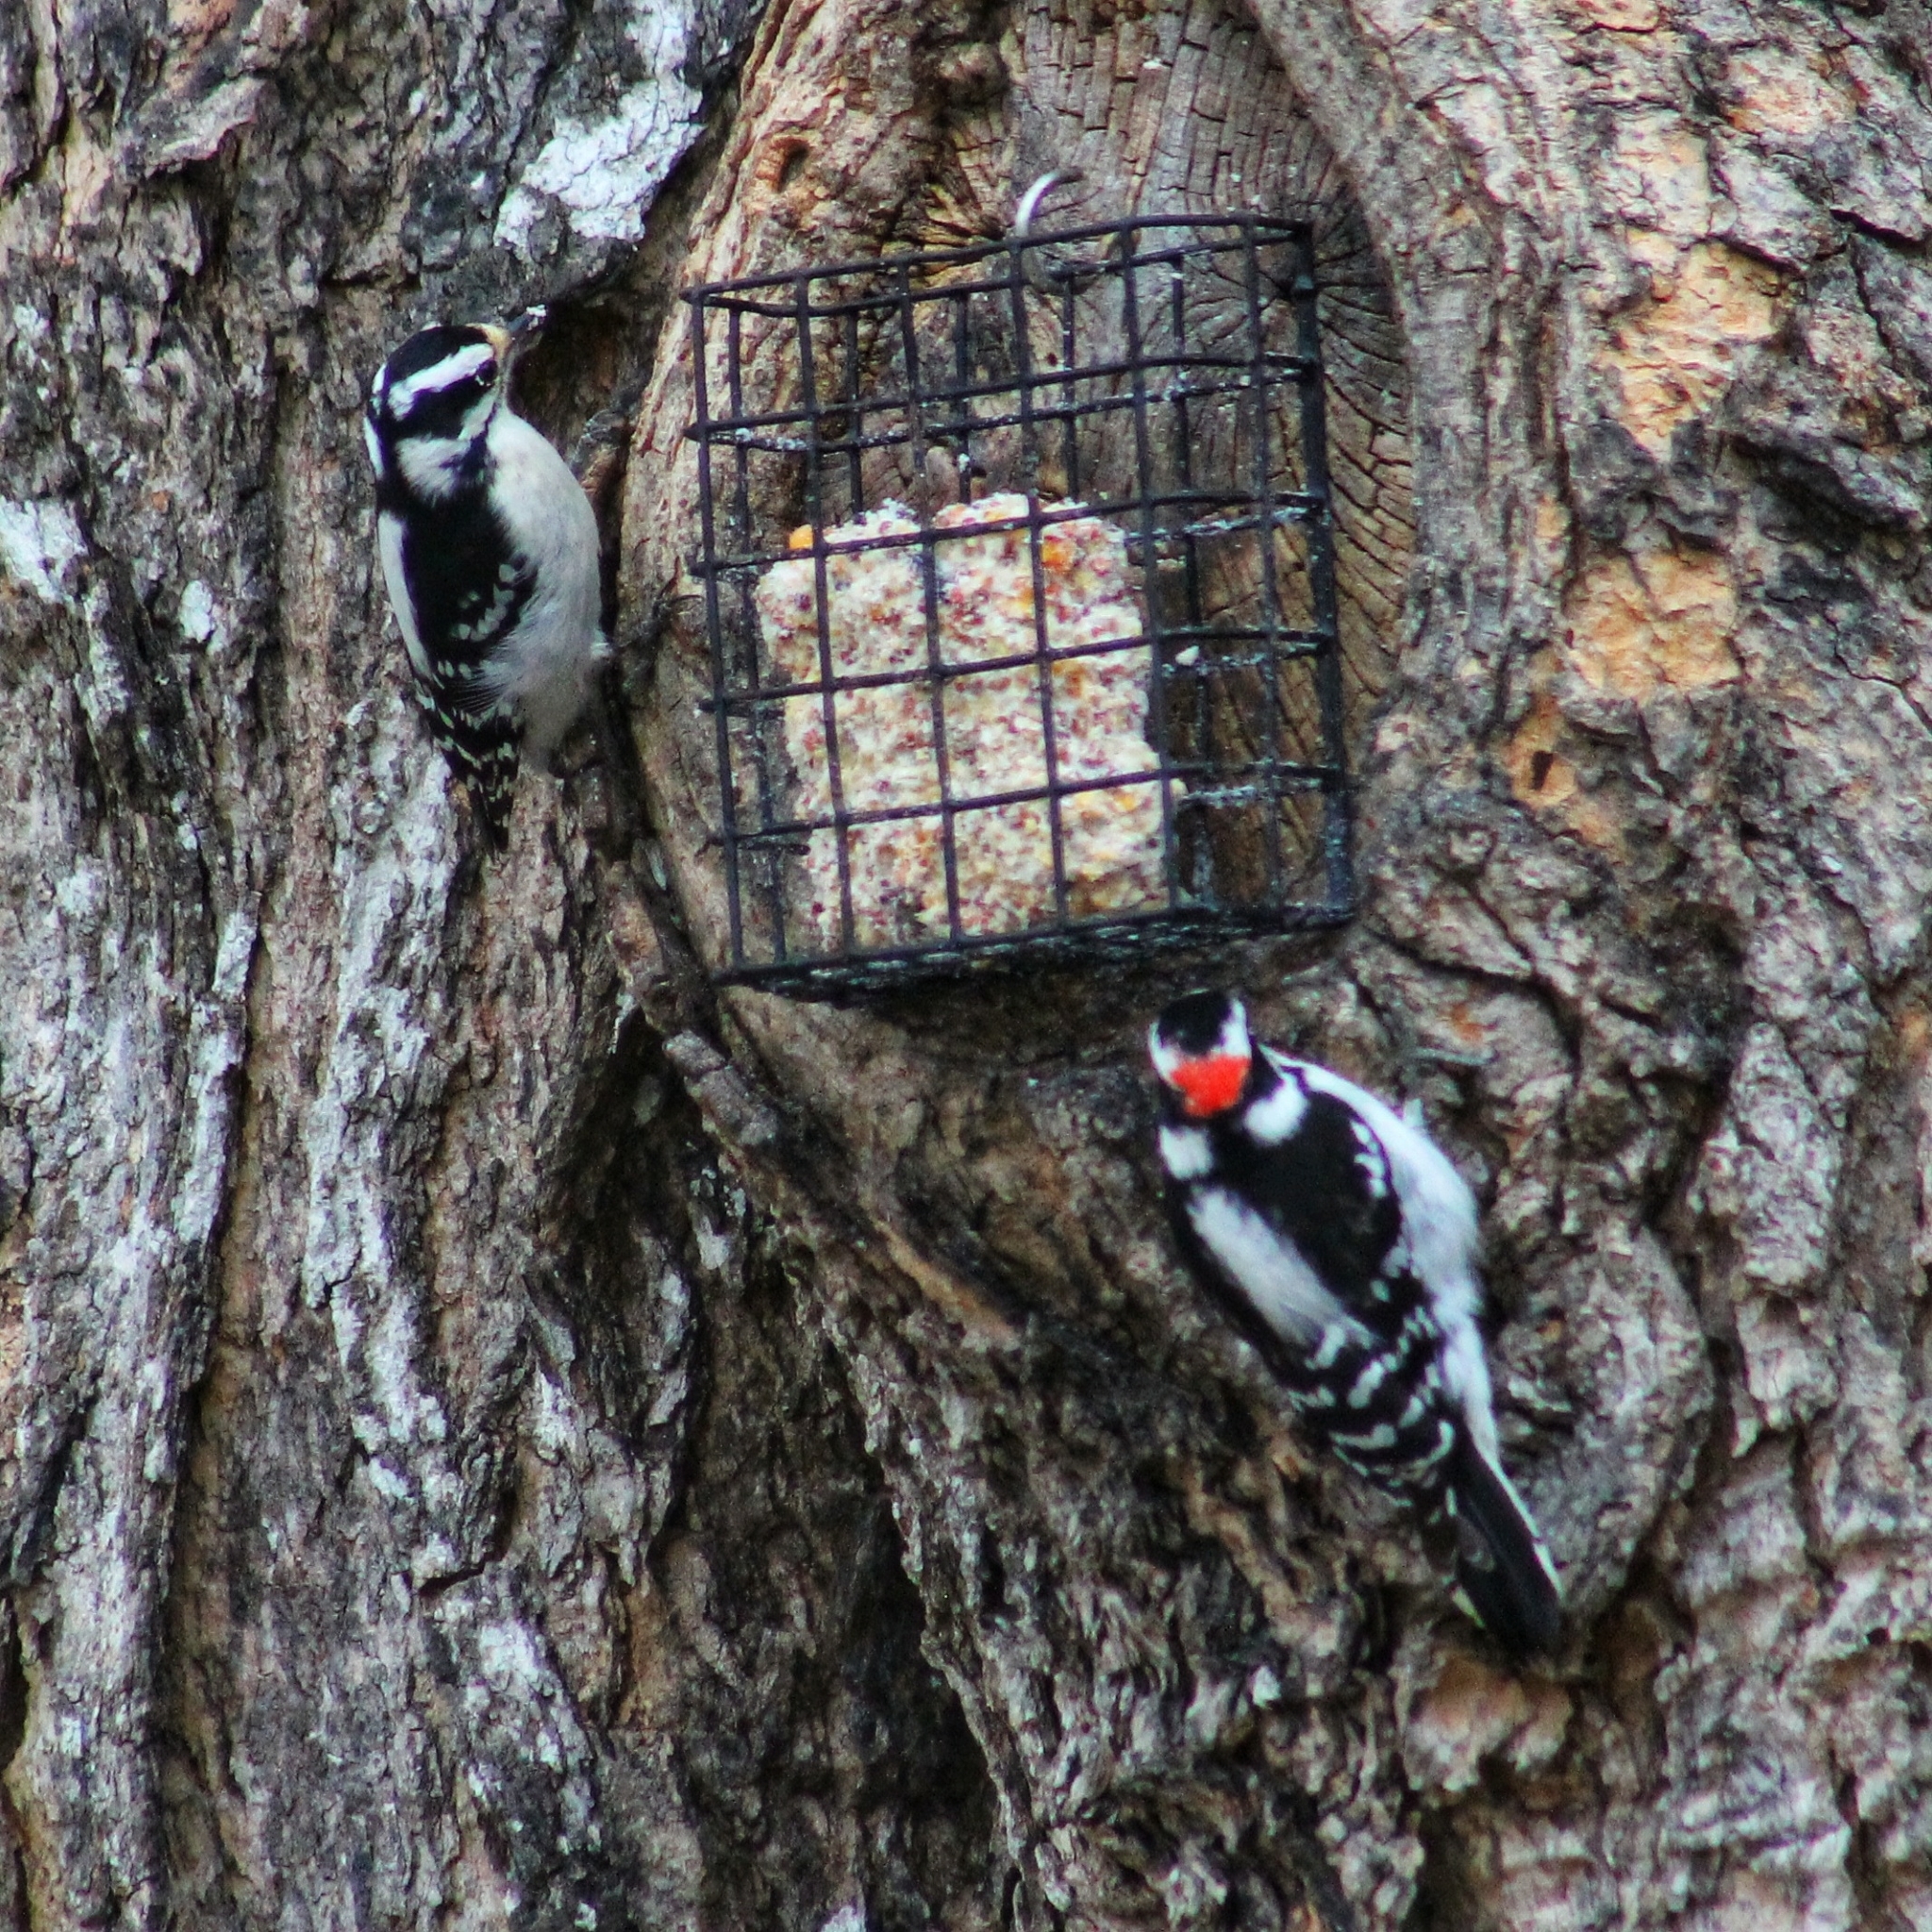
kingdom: Animalia
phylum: Chordata
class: Aves
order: Piciformes
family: Picidae
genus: Dryobates
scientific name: Dryobates pubescens
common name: Downy woodpecker
